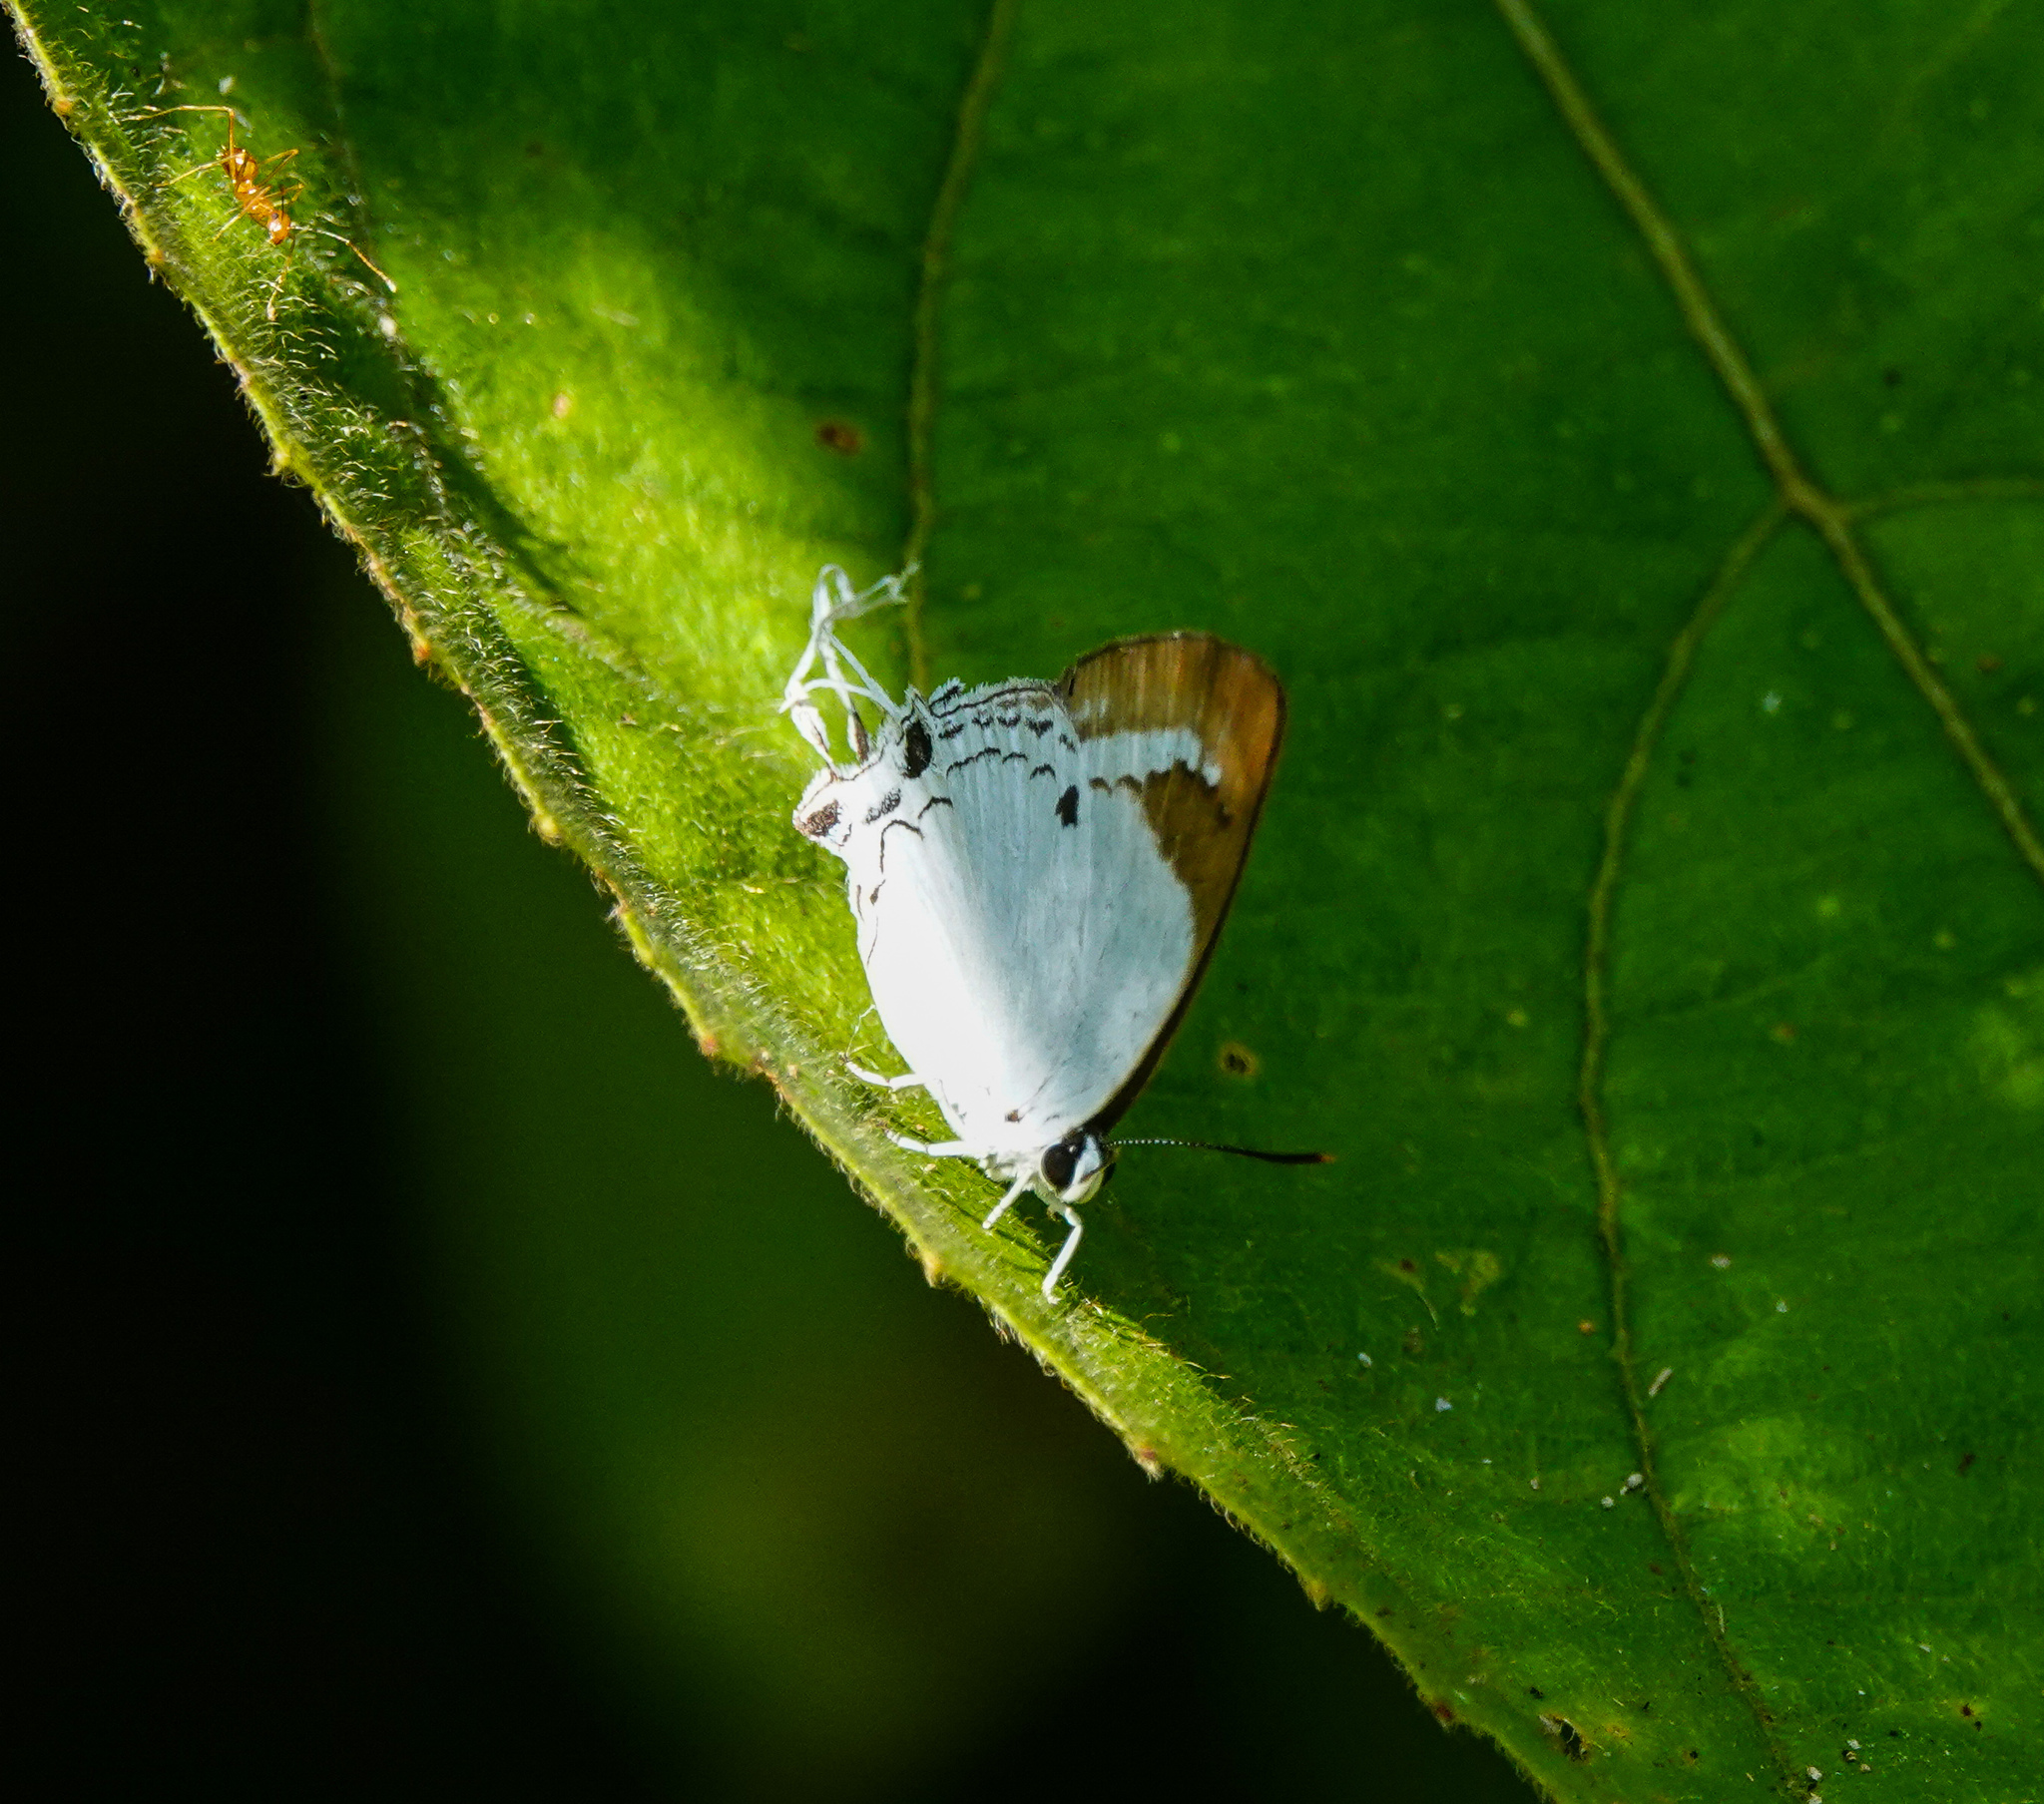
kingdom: Animalia
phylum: Arthropoda
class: Insecta
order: Lepidoptera
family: Lycaenidae
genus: Suasa
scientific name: Suasa lisides
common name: Red imperial
